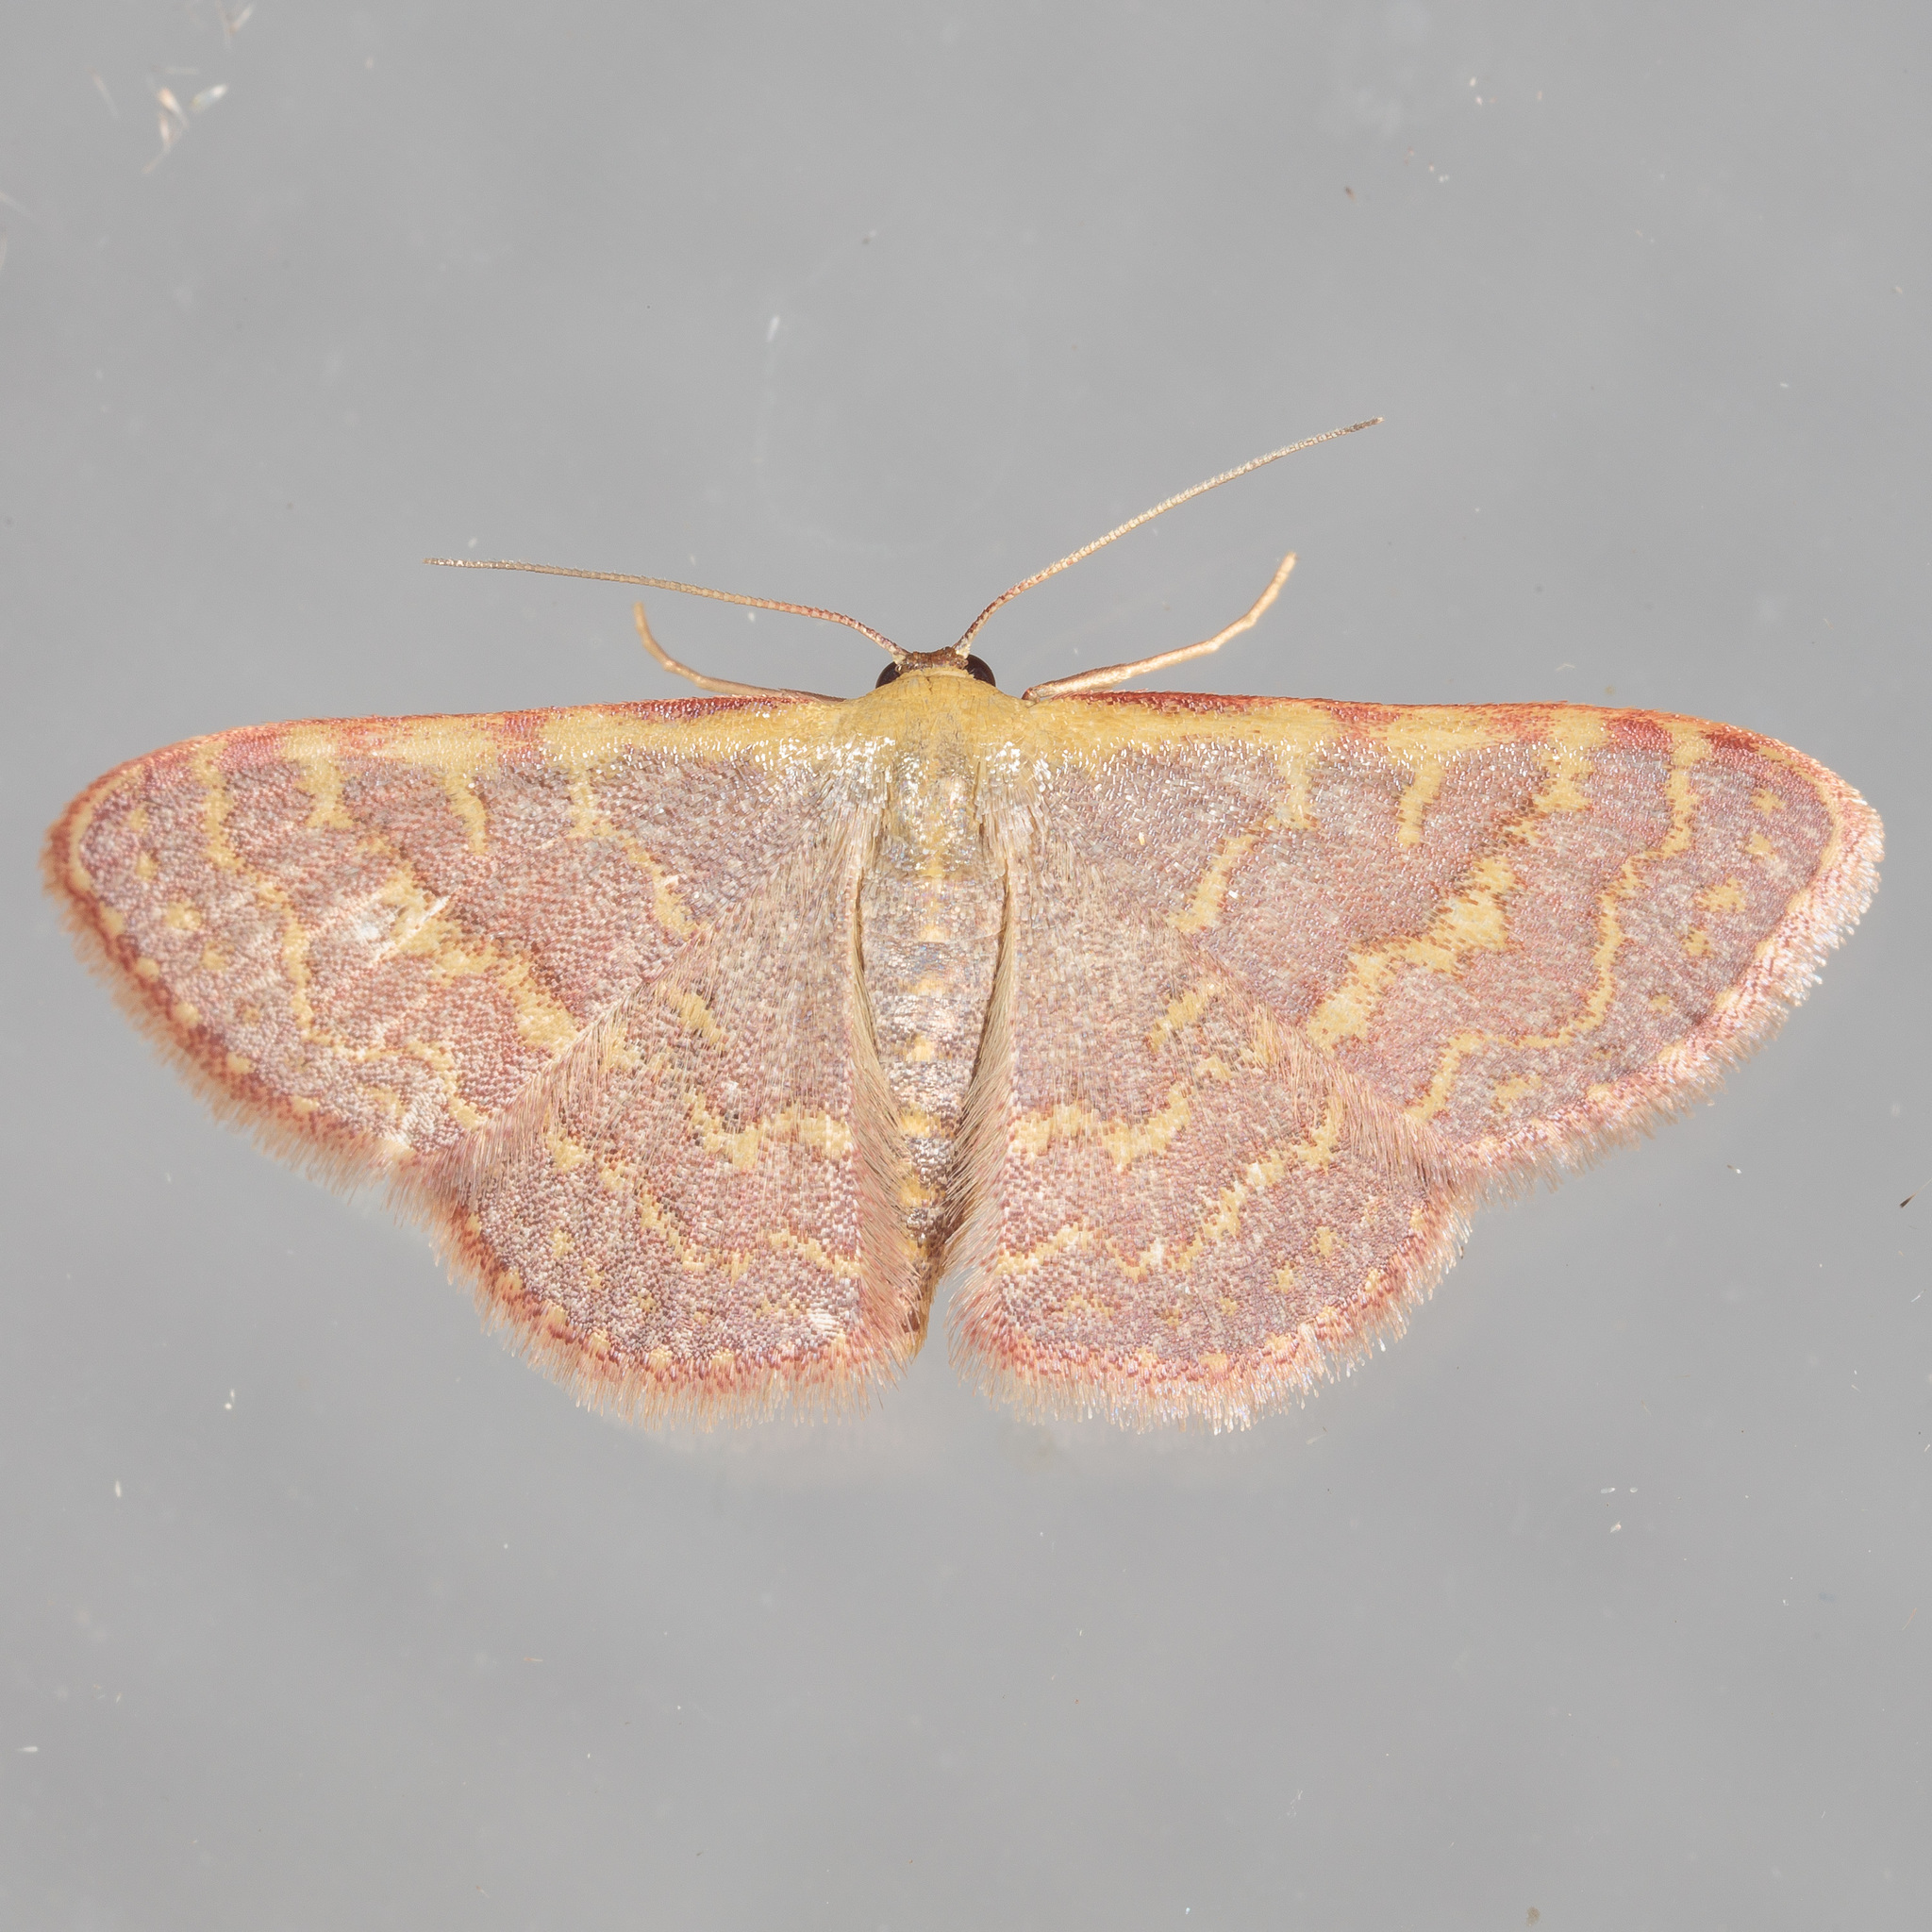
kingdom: Animalia
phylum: Arthropoda
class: Insecta
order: Lepidoptera
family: Geometridae
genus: Leptostales
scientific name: Leptostales pannaria
